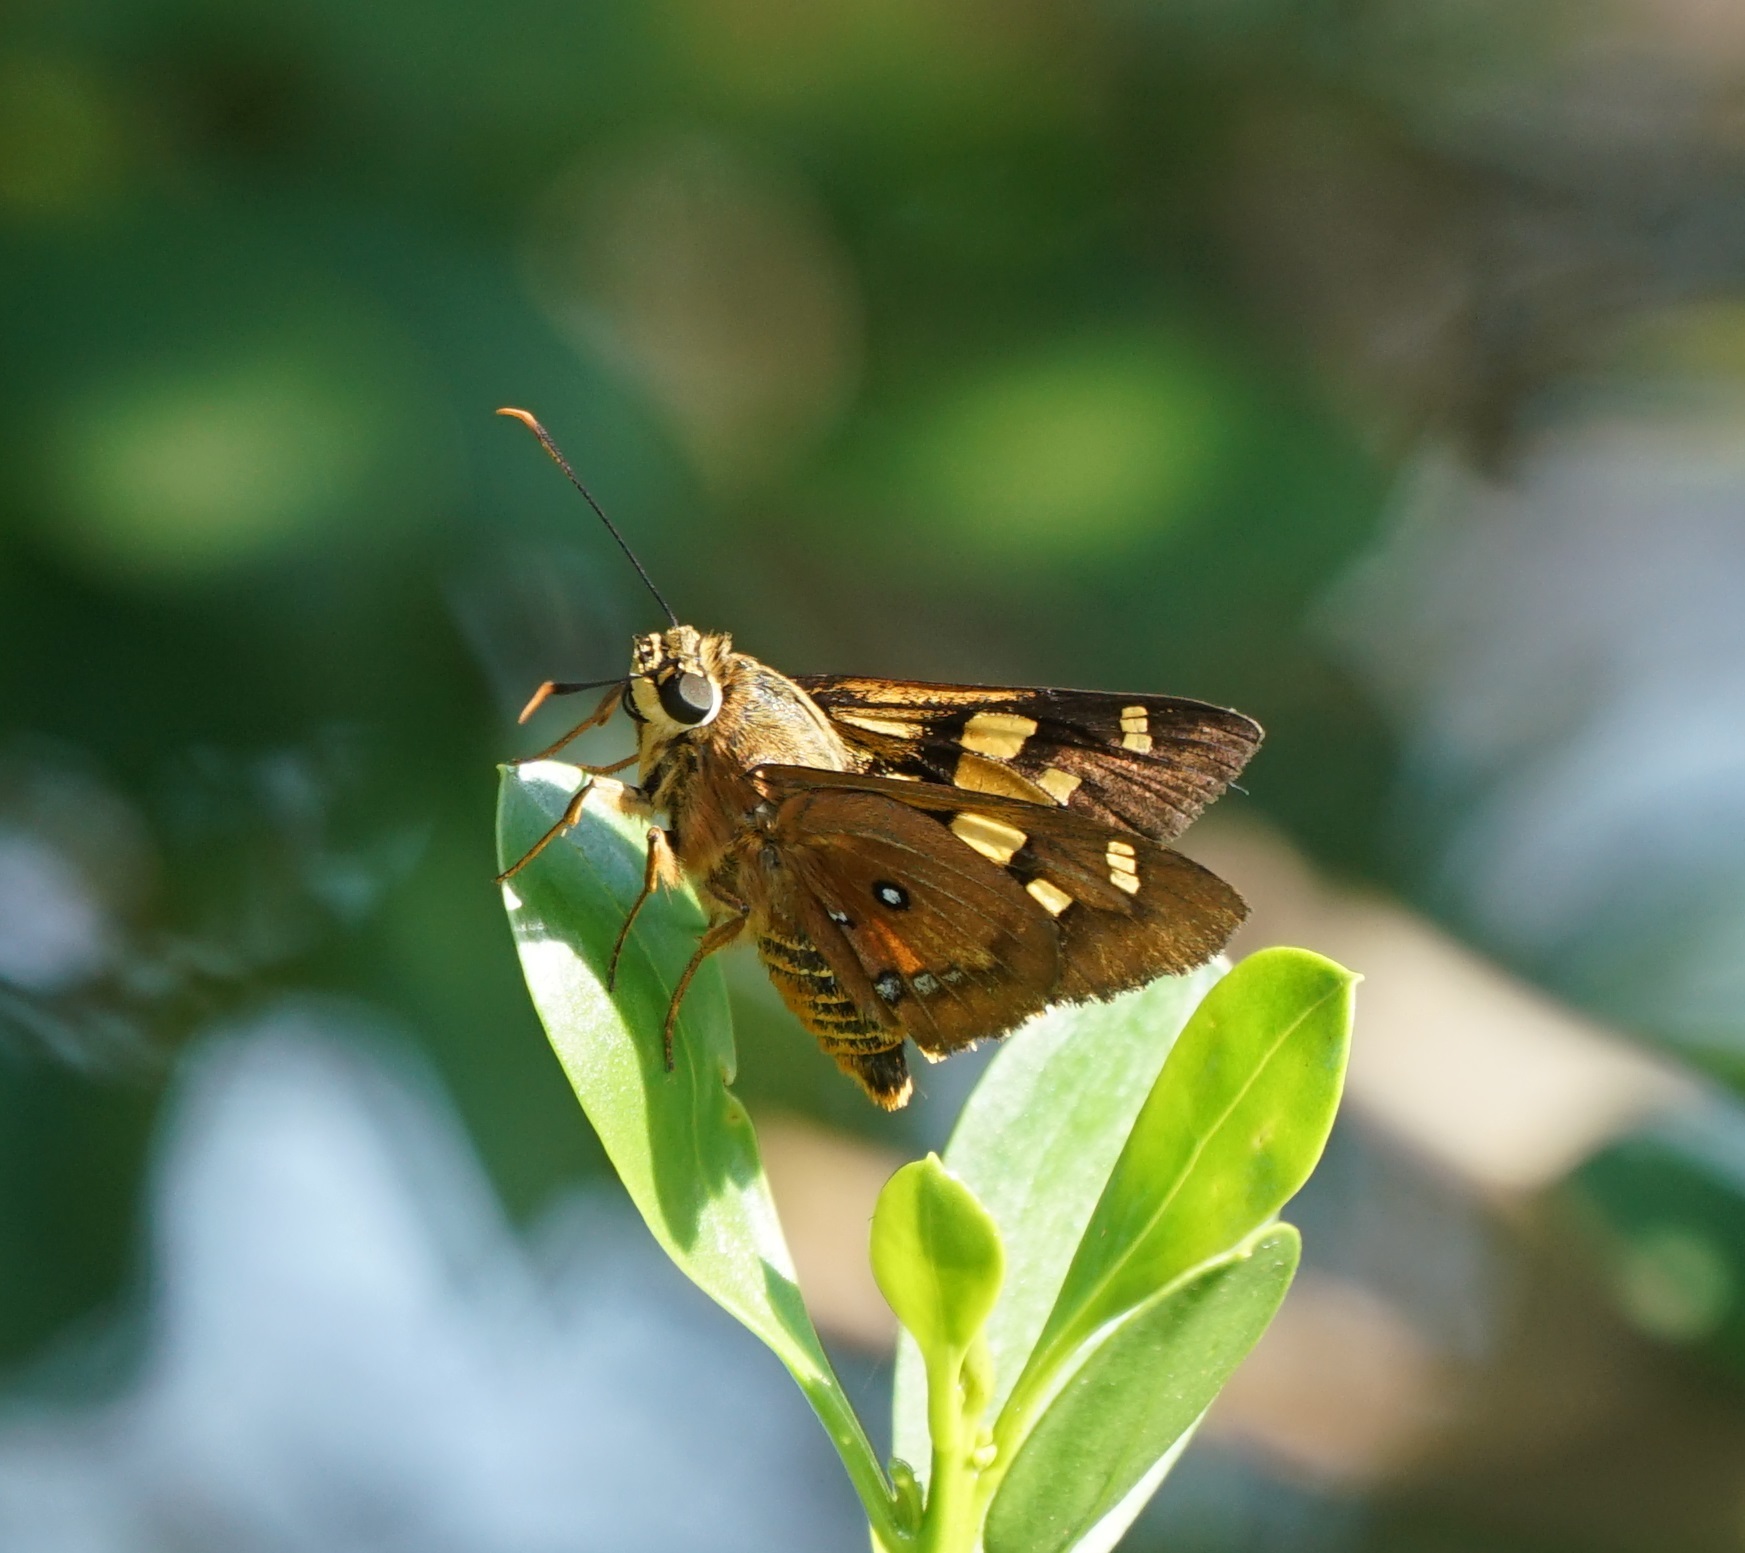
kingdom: Animalia
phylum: Arthropoda
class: Insecta
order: Lepidoptera
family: Hesperiidae
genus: Trapezites
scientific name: Trapezites symmomus
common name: Splendid ochre
